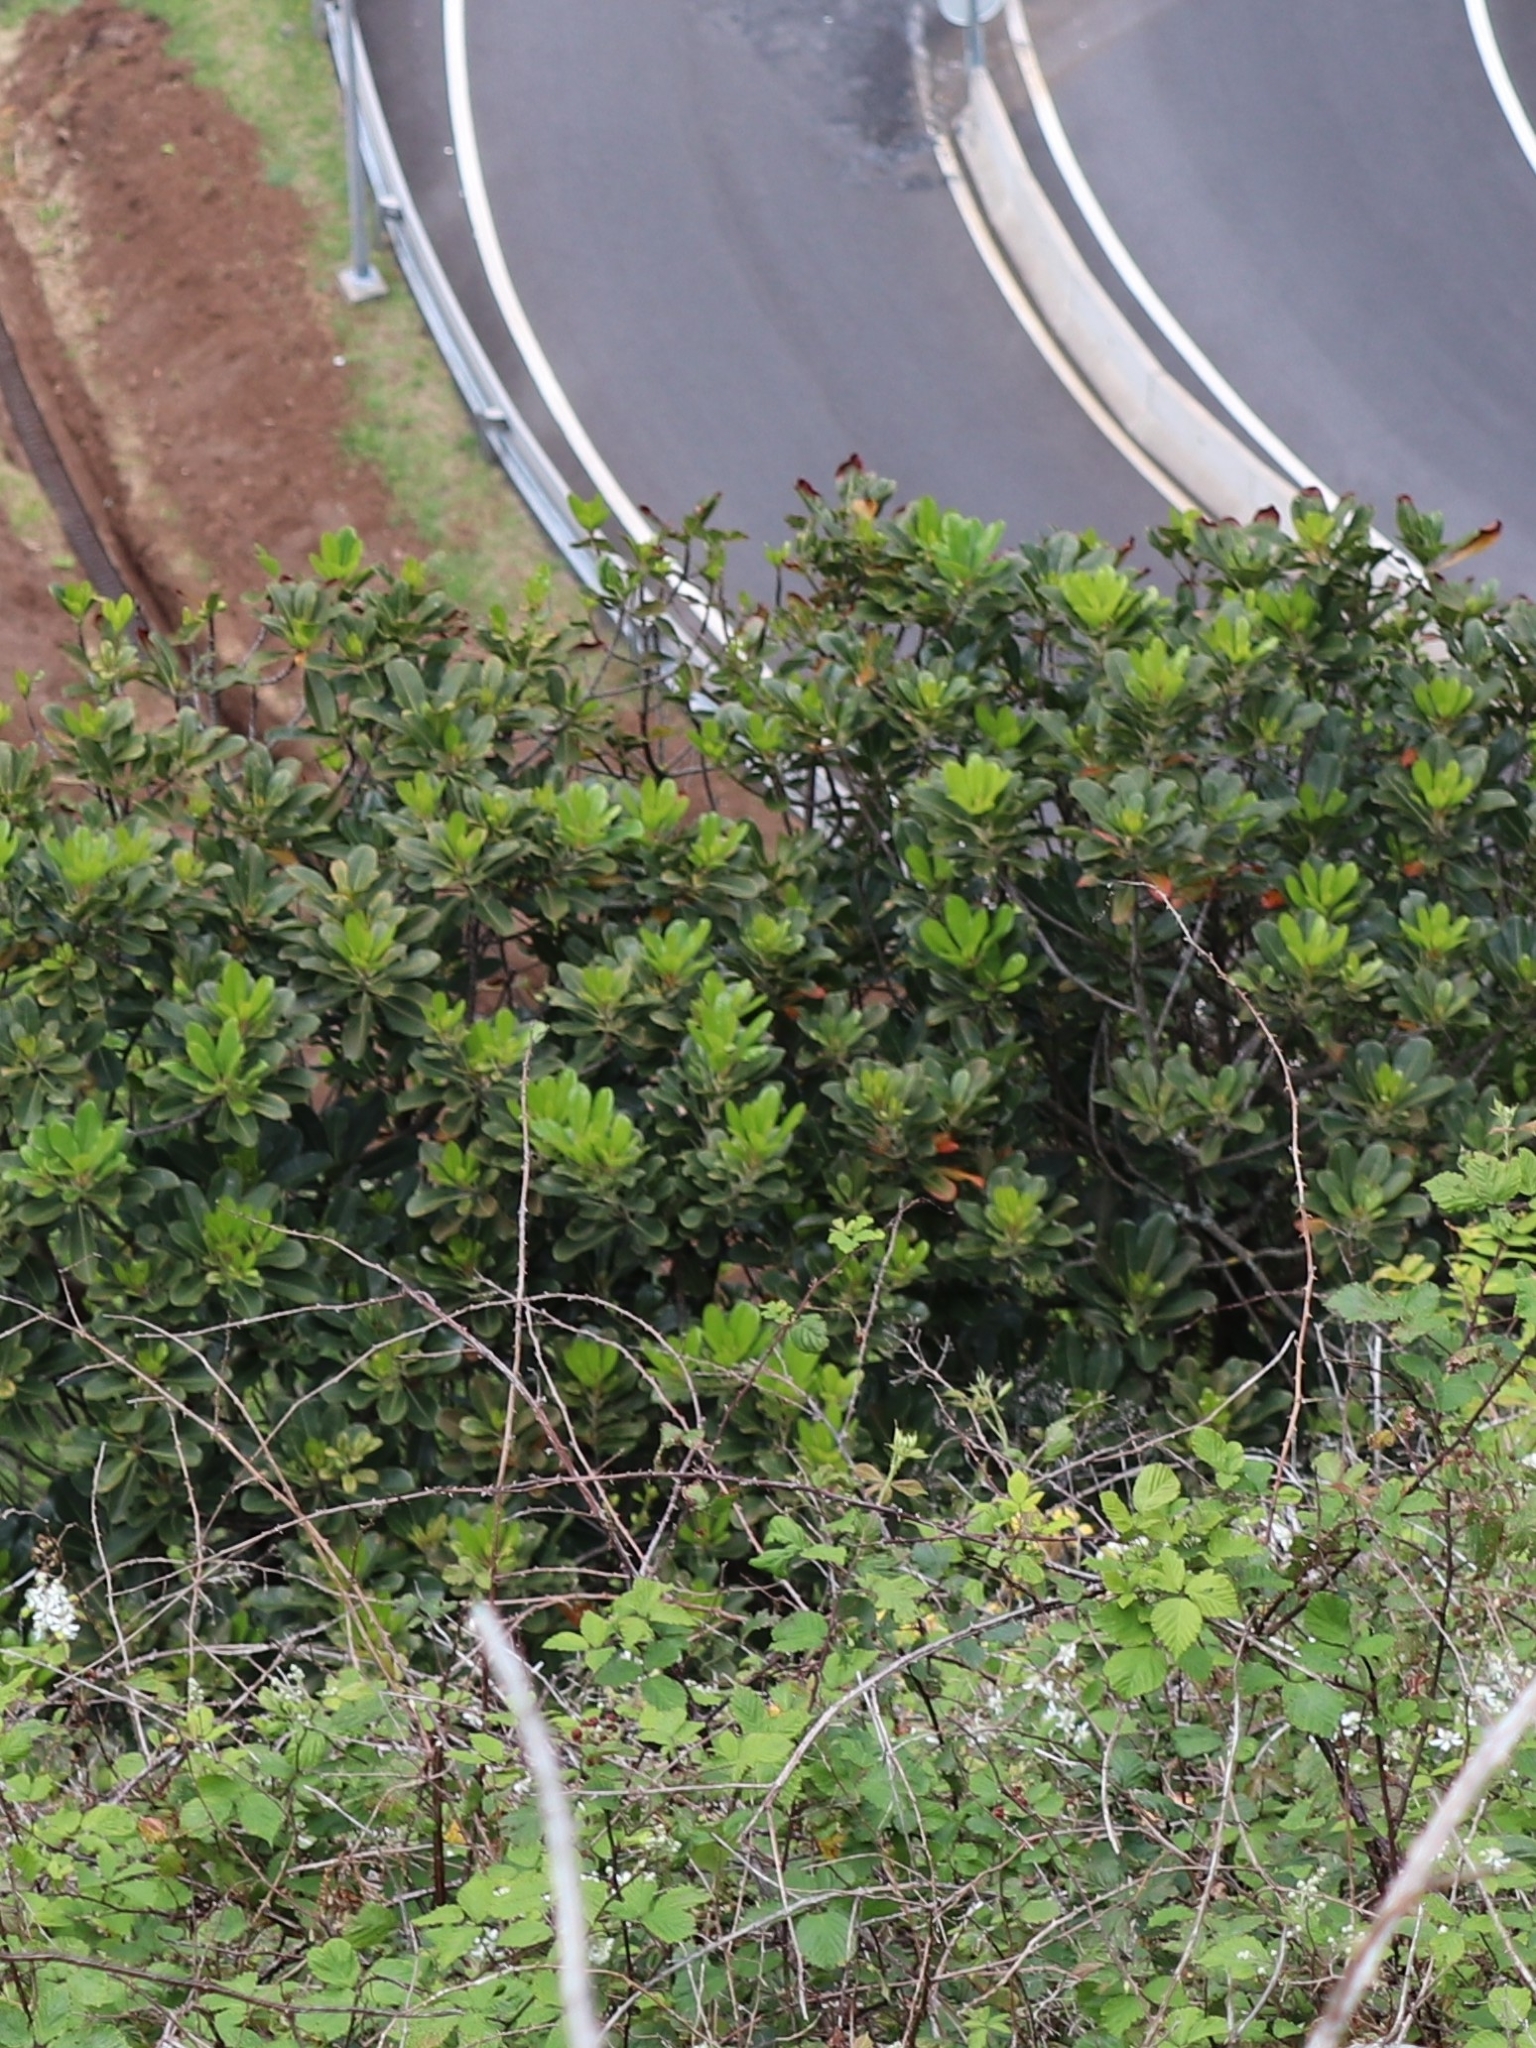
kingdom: Plantae
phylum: Tracheophyta
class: Magnoliopsida
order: Ericales
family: Sapotaceae
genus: Sideroxylon
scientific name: Sideroxylon mirmulans
